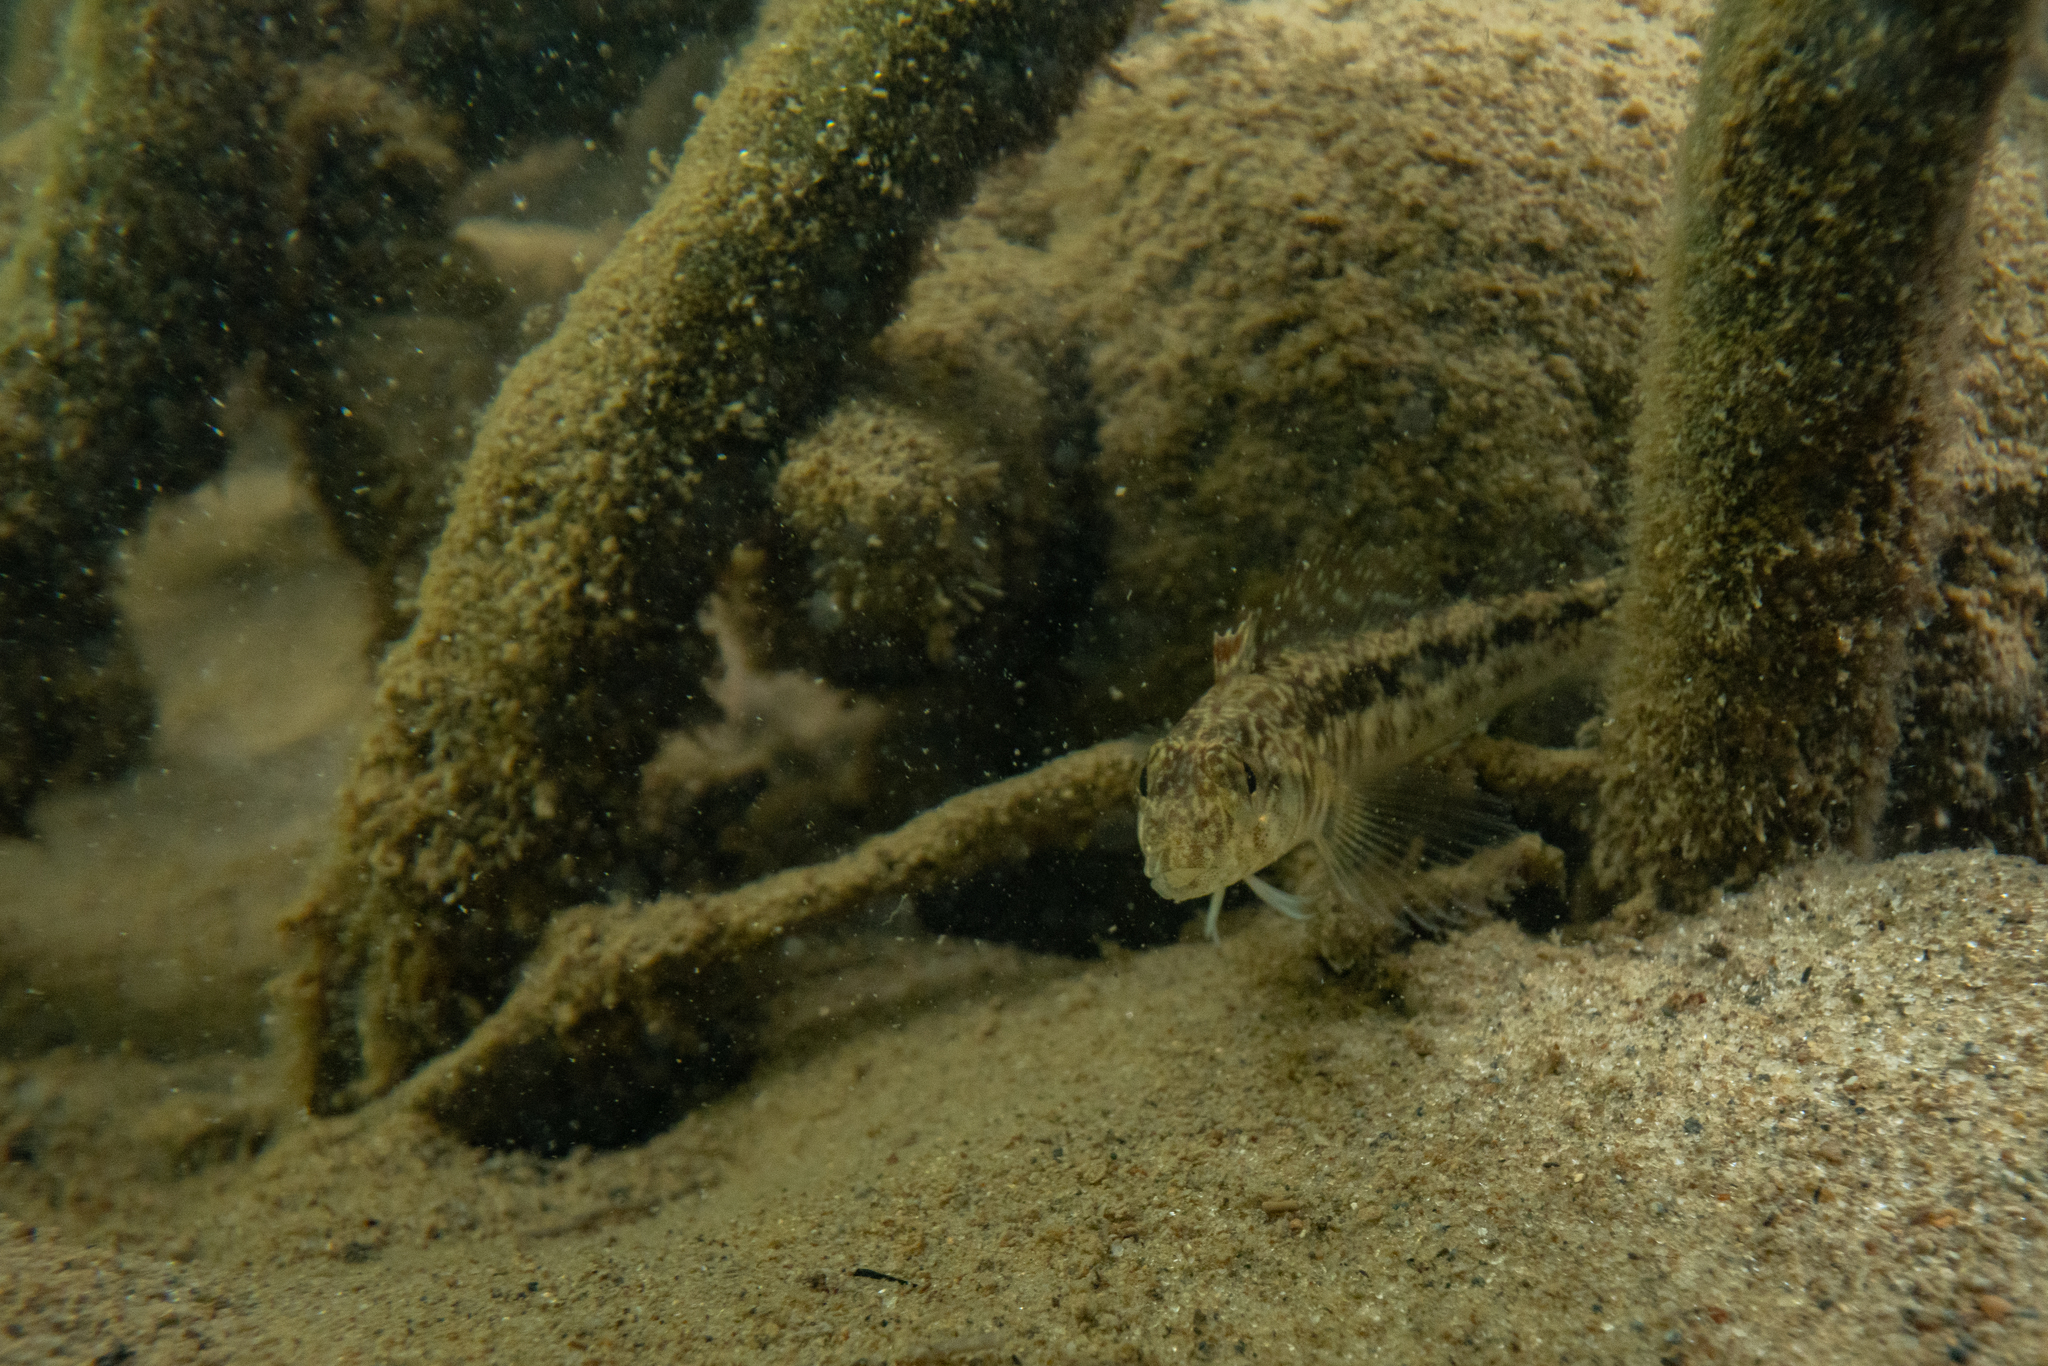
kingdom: Animalia
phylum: Chordata
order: Perciformes
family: Tripterygiidae
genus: Forsterygion
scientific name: Forsterygion nigripenne
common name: Cockabully
